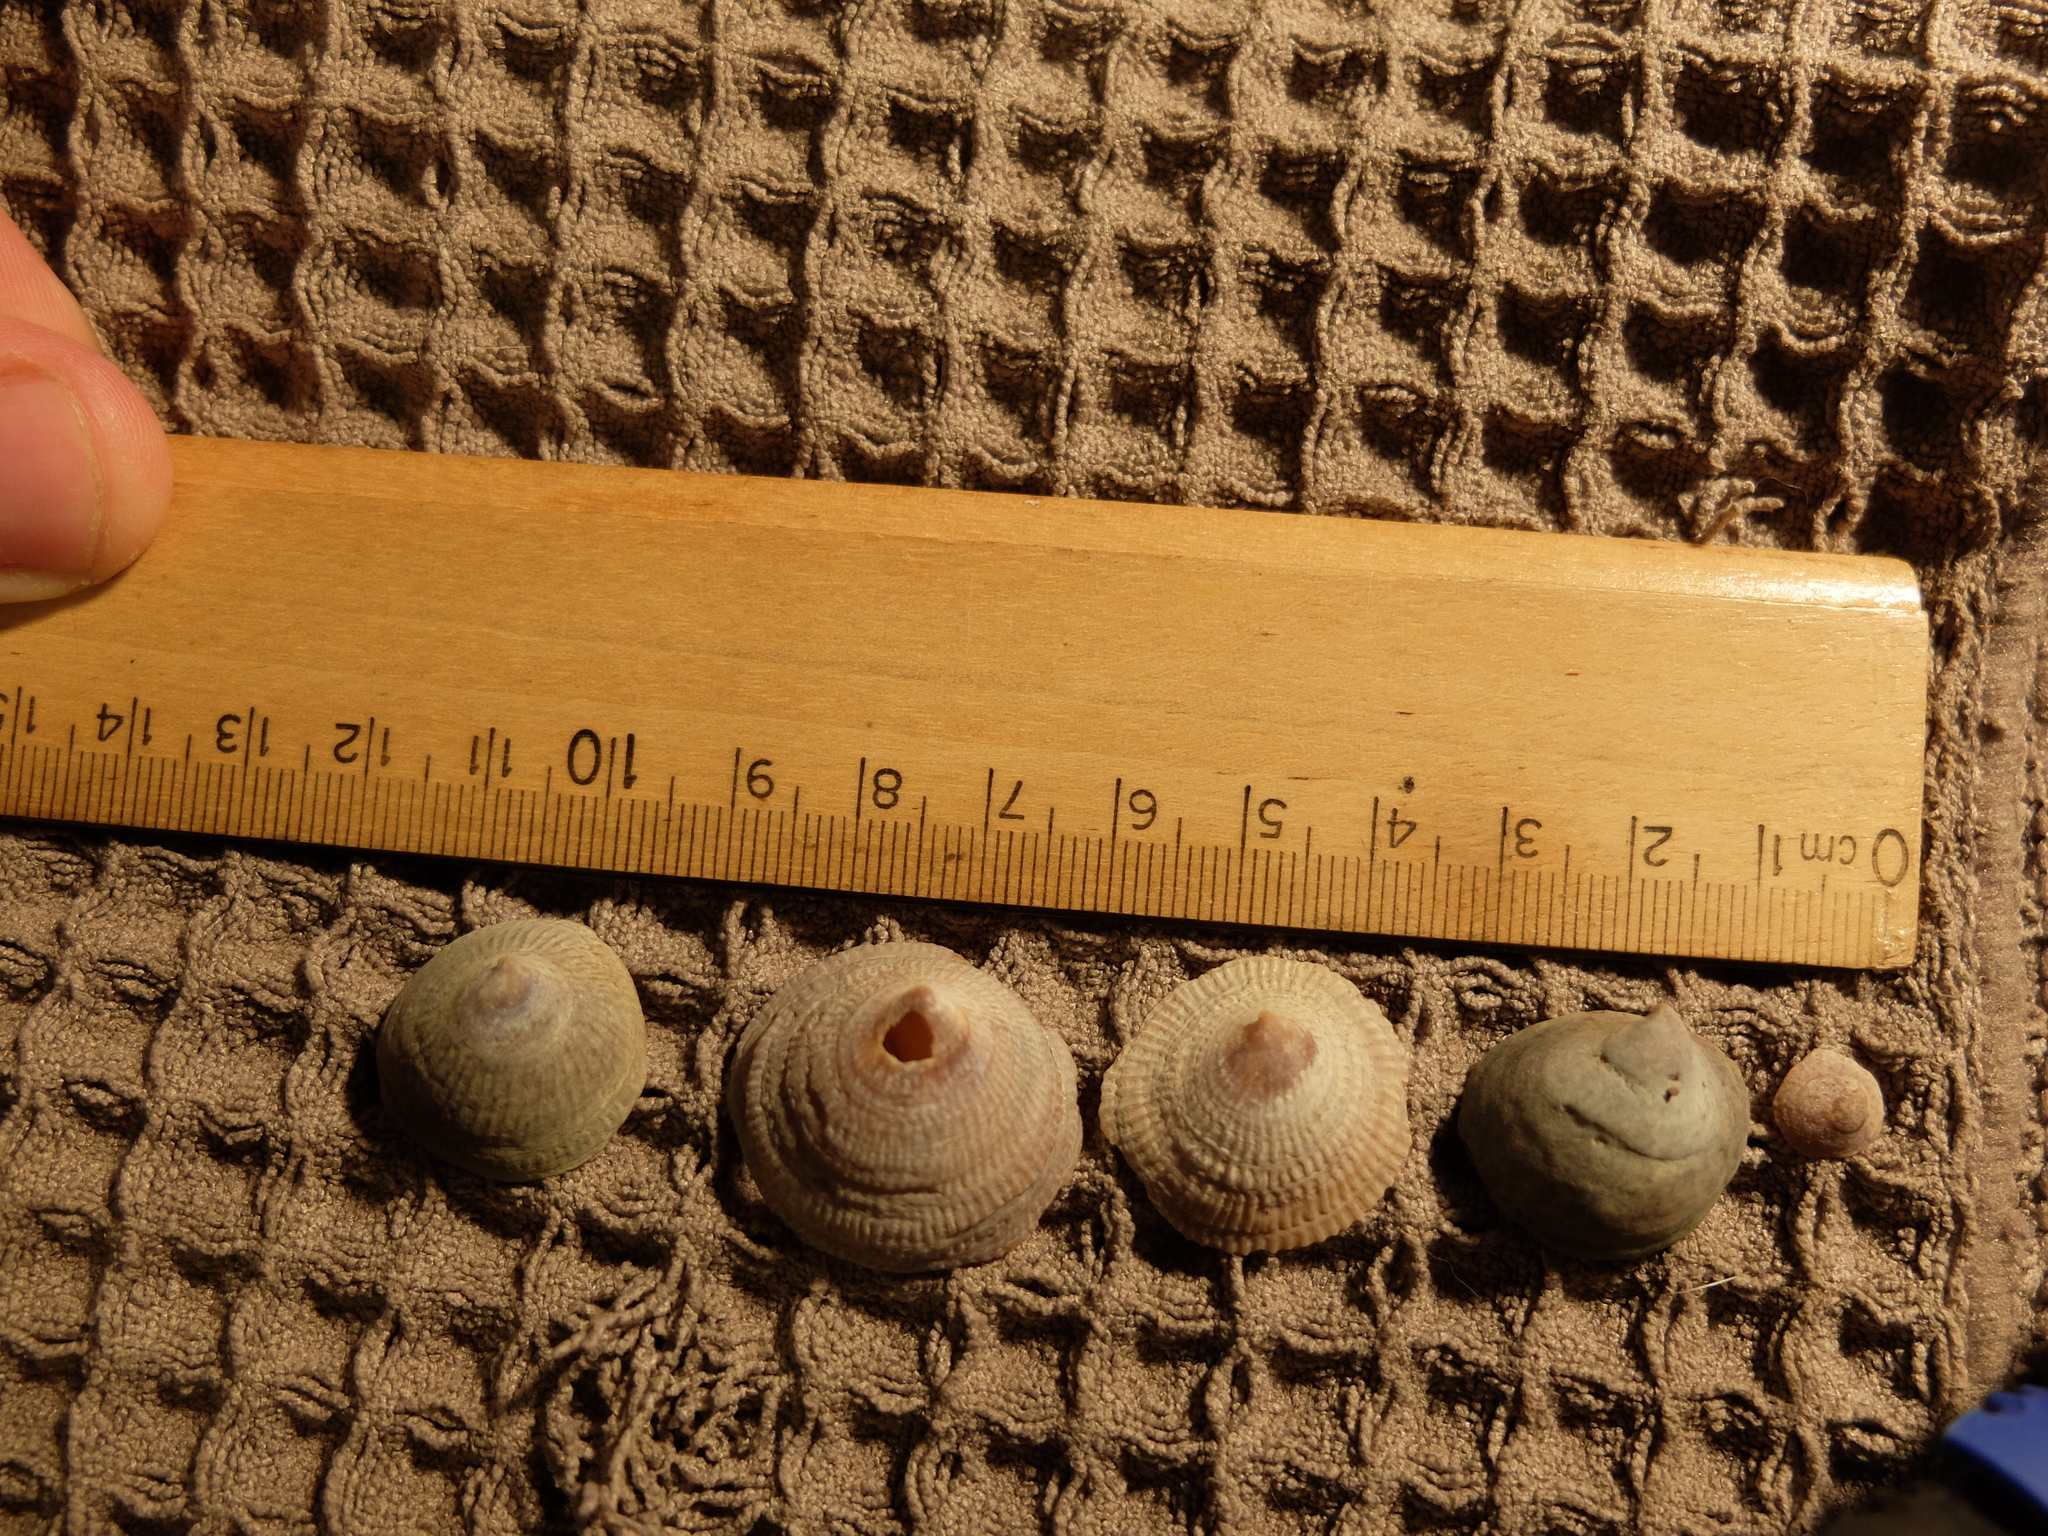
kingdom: Animalia
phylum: Mollusca
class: Gastropoda
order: Littorinimorpha
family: Calyptraeidae
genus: Crucibulum
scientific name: Crucibulum striatum
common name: Striate cup-and -saucer
